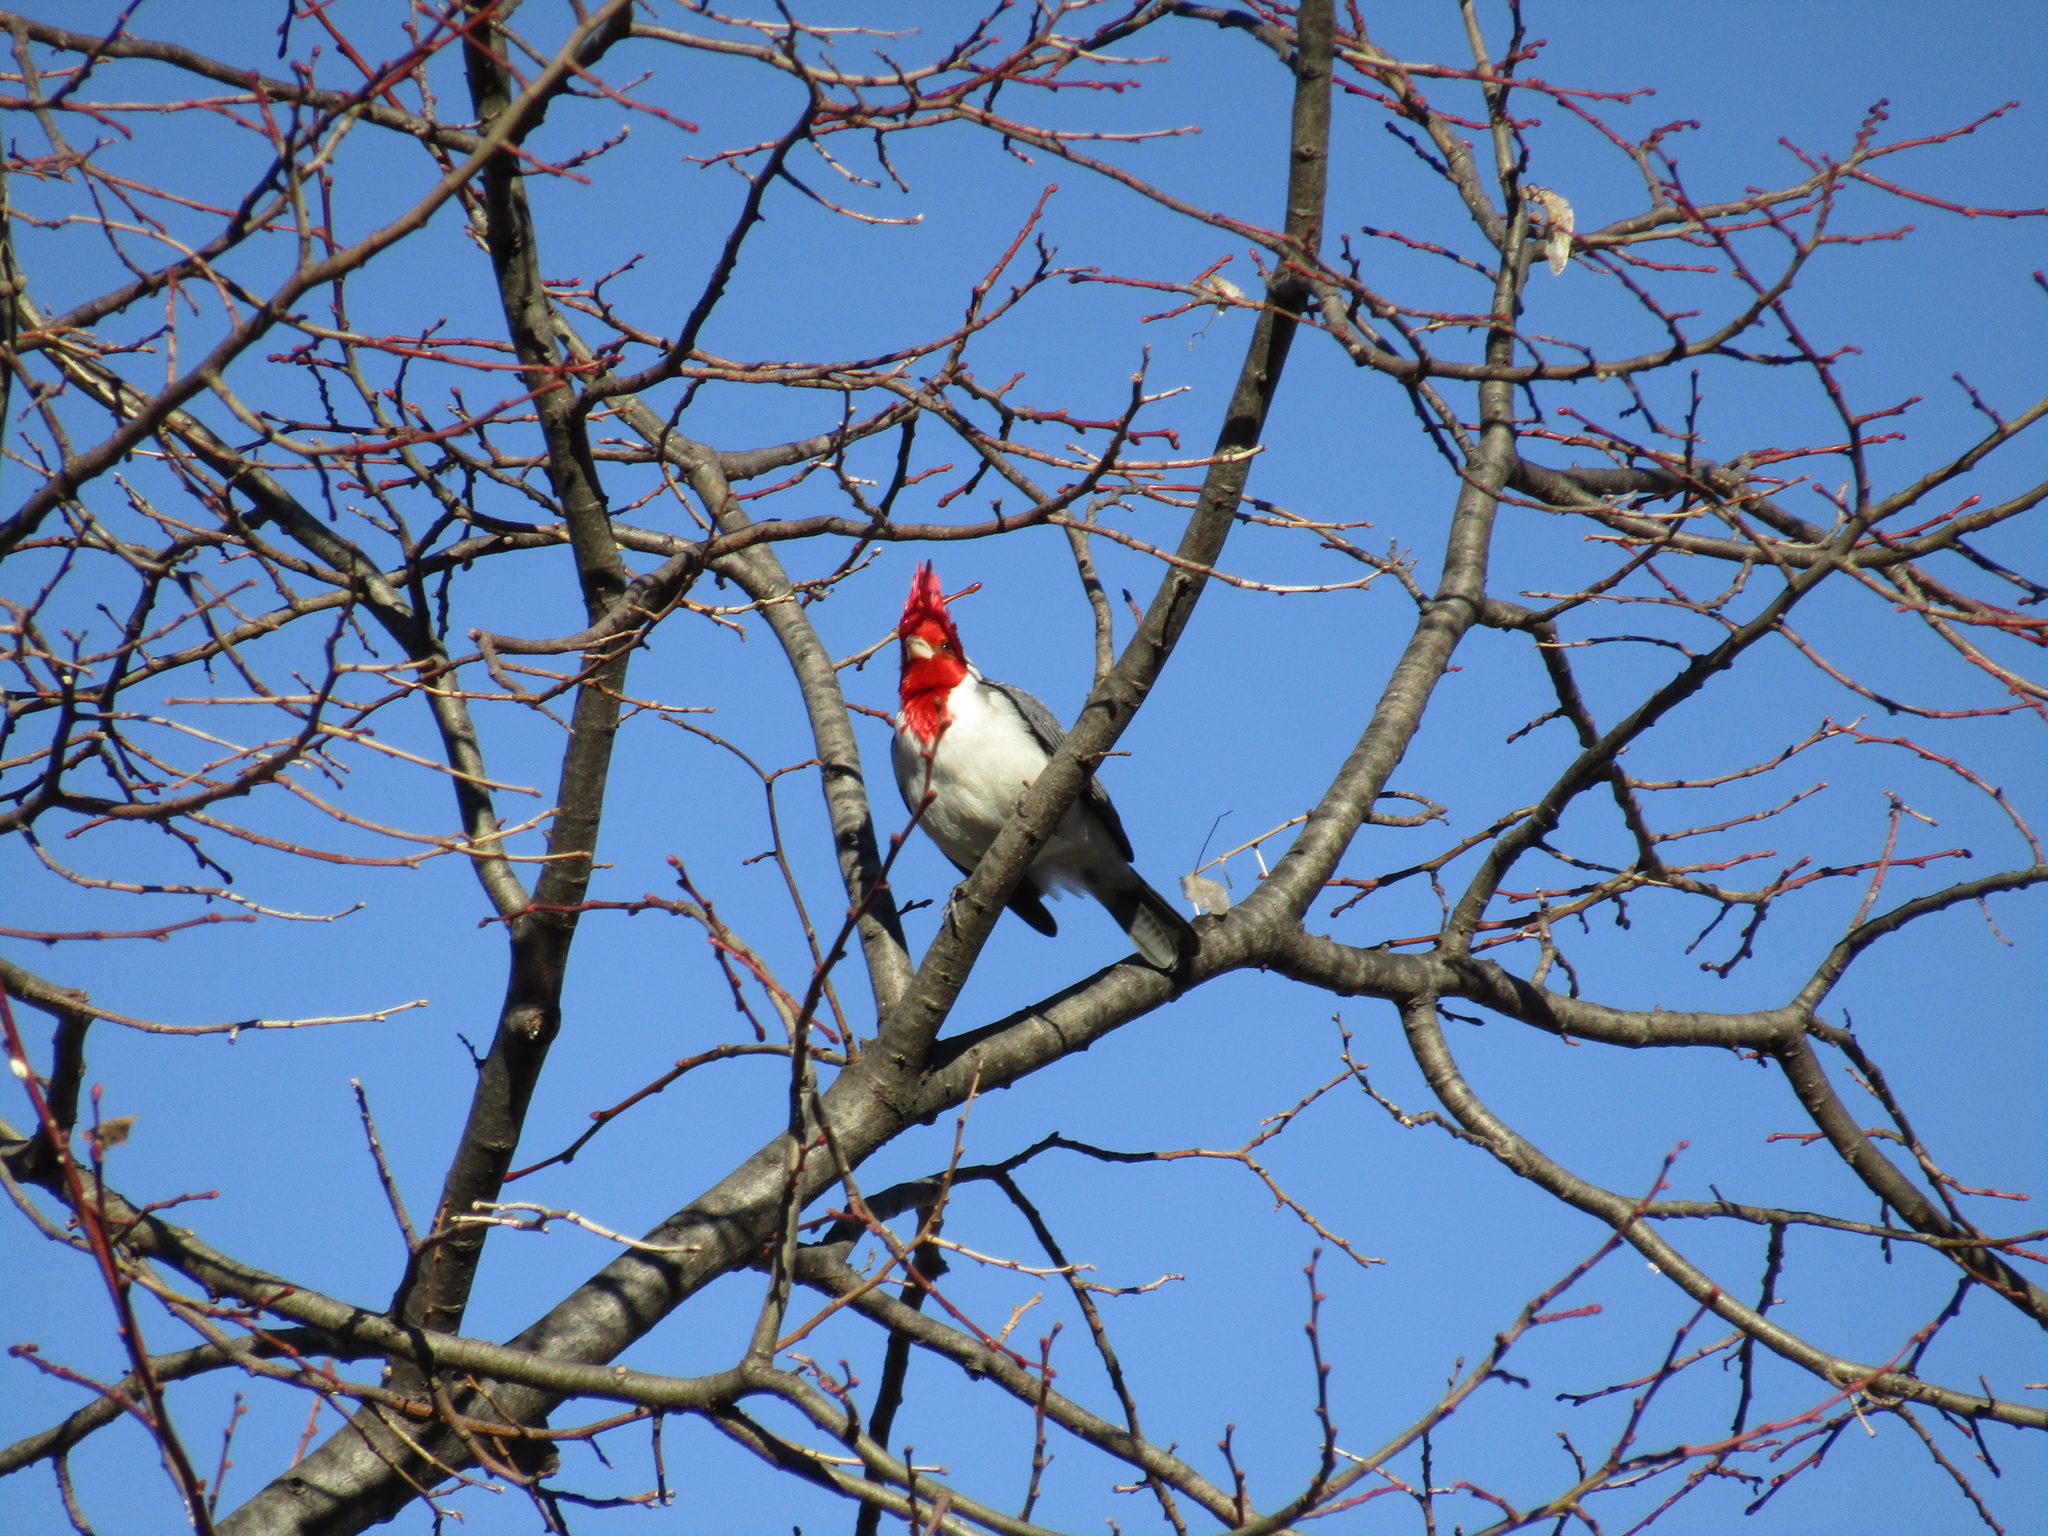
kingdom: Animalia
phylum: Chordata
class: Aves
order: Passeriformes
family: Thraupidae
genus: Paroaria
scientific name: Paroaria coronata
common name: Red-crested cardinal
